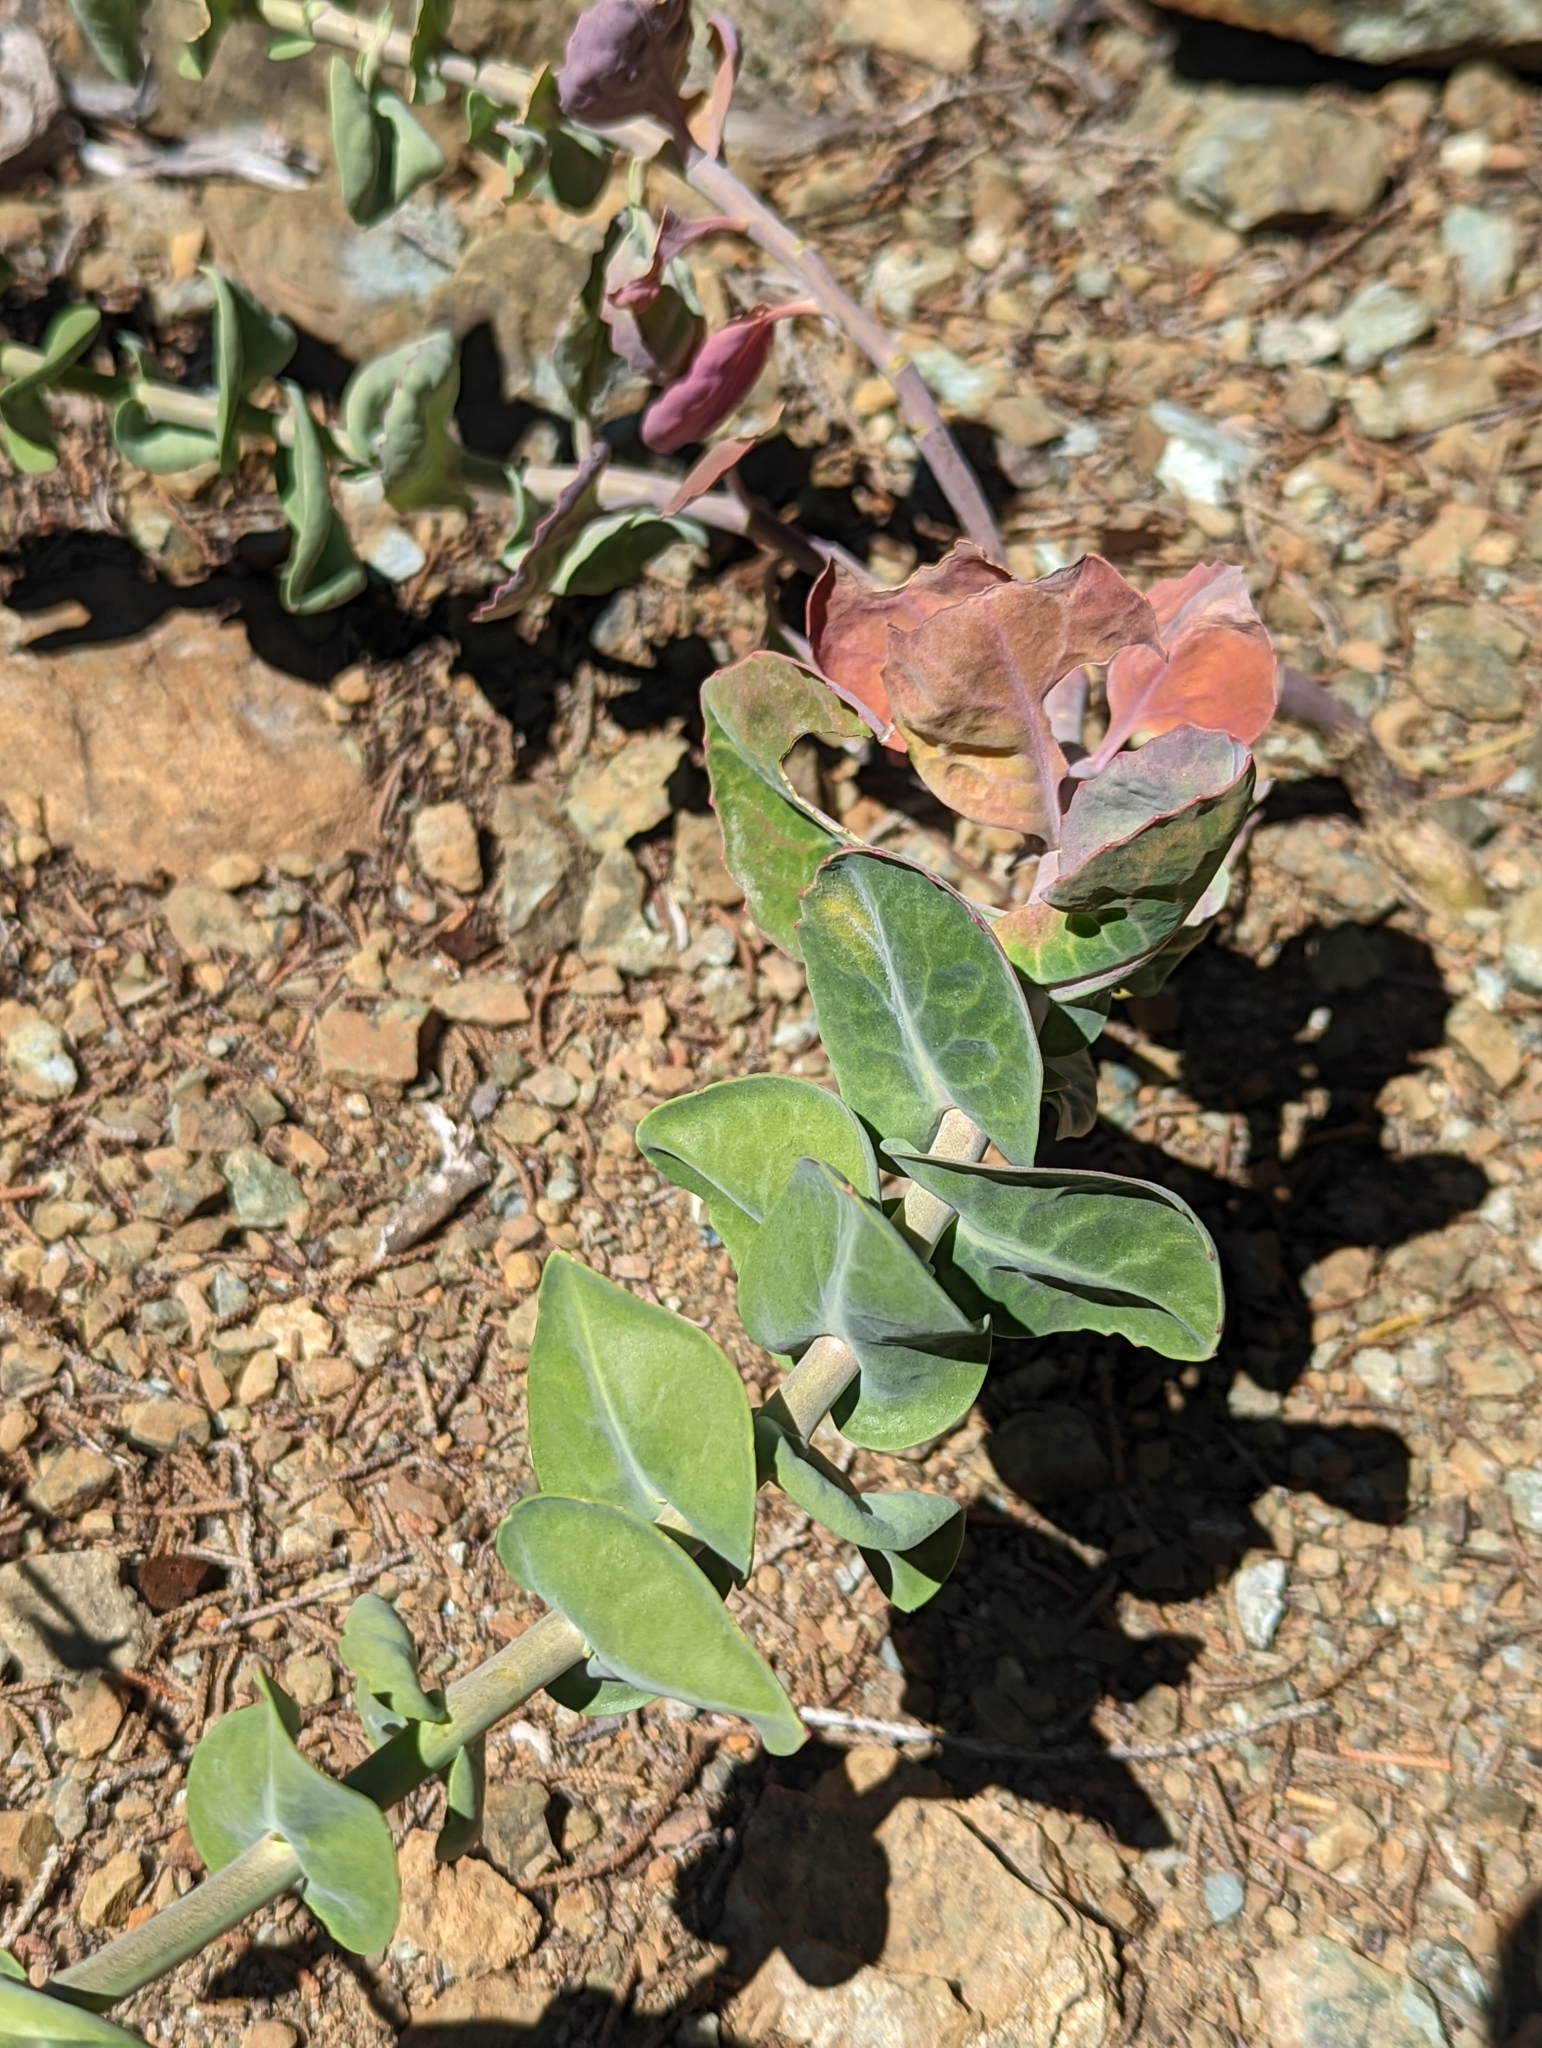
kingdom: Plantae
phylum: Tracheophyta
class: Magnoliopsida
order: Brassicales
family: Brassicaceae
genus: Streptanthus
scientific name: Streptanthus morrisonii
